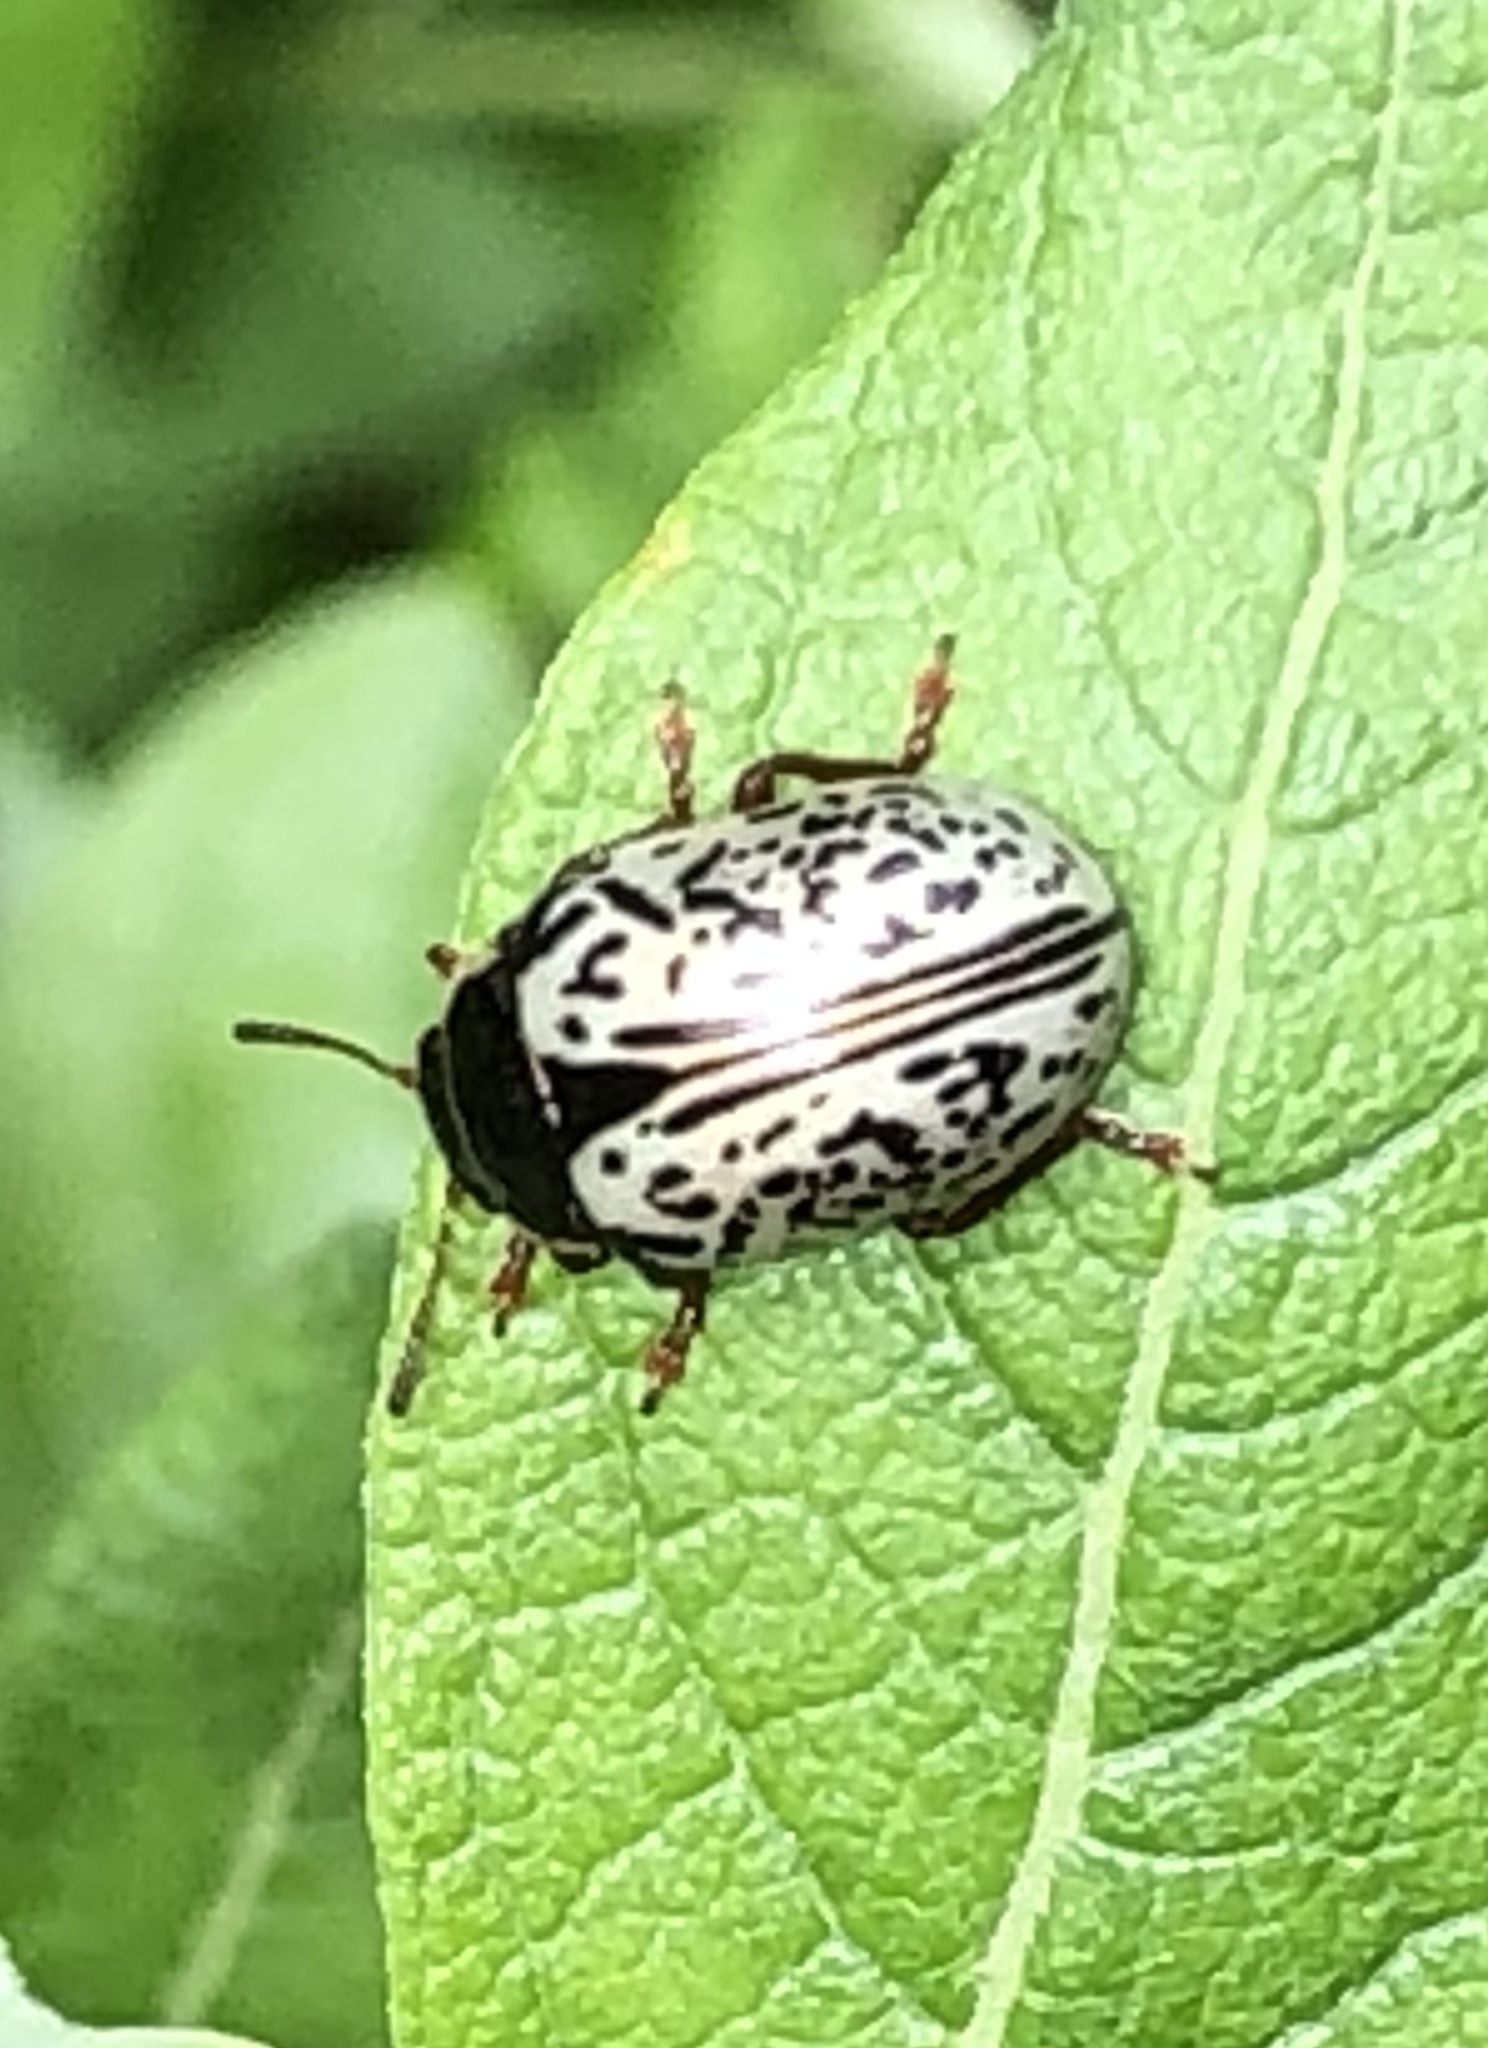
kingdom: Animalia
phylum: Arthropoda
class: Insecta
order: Coleoptera
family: Chrysomelidae
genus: Calligrapha
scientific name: Calligrapha multipunctata
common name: Common willow calligrapher beetle
